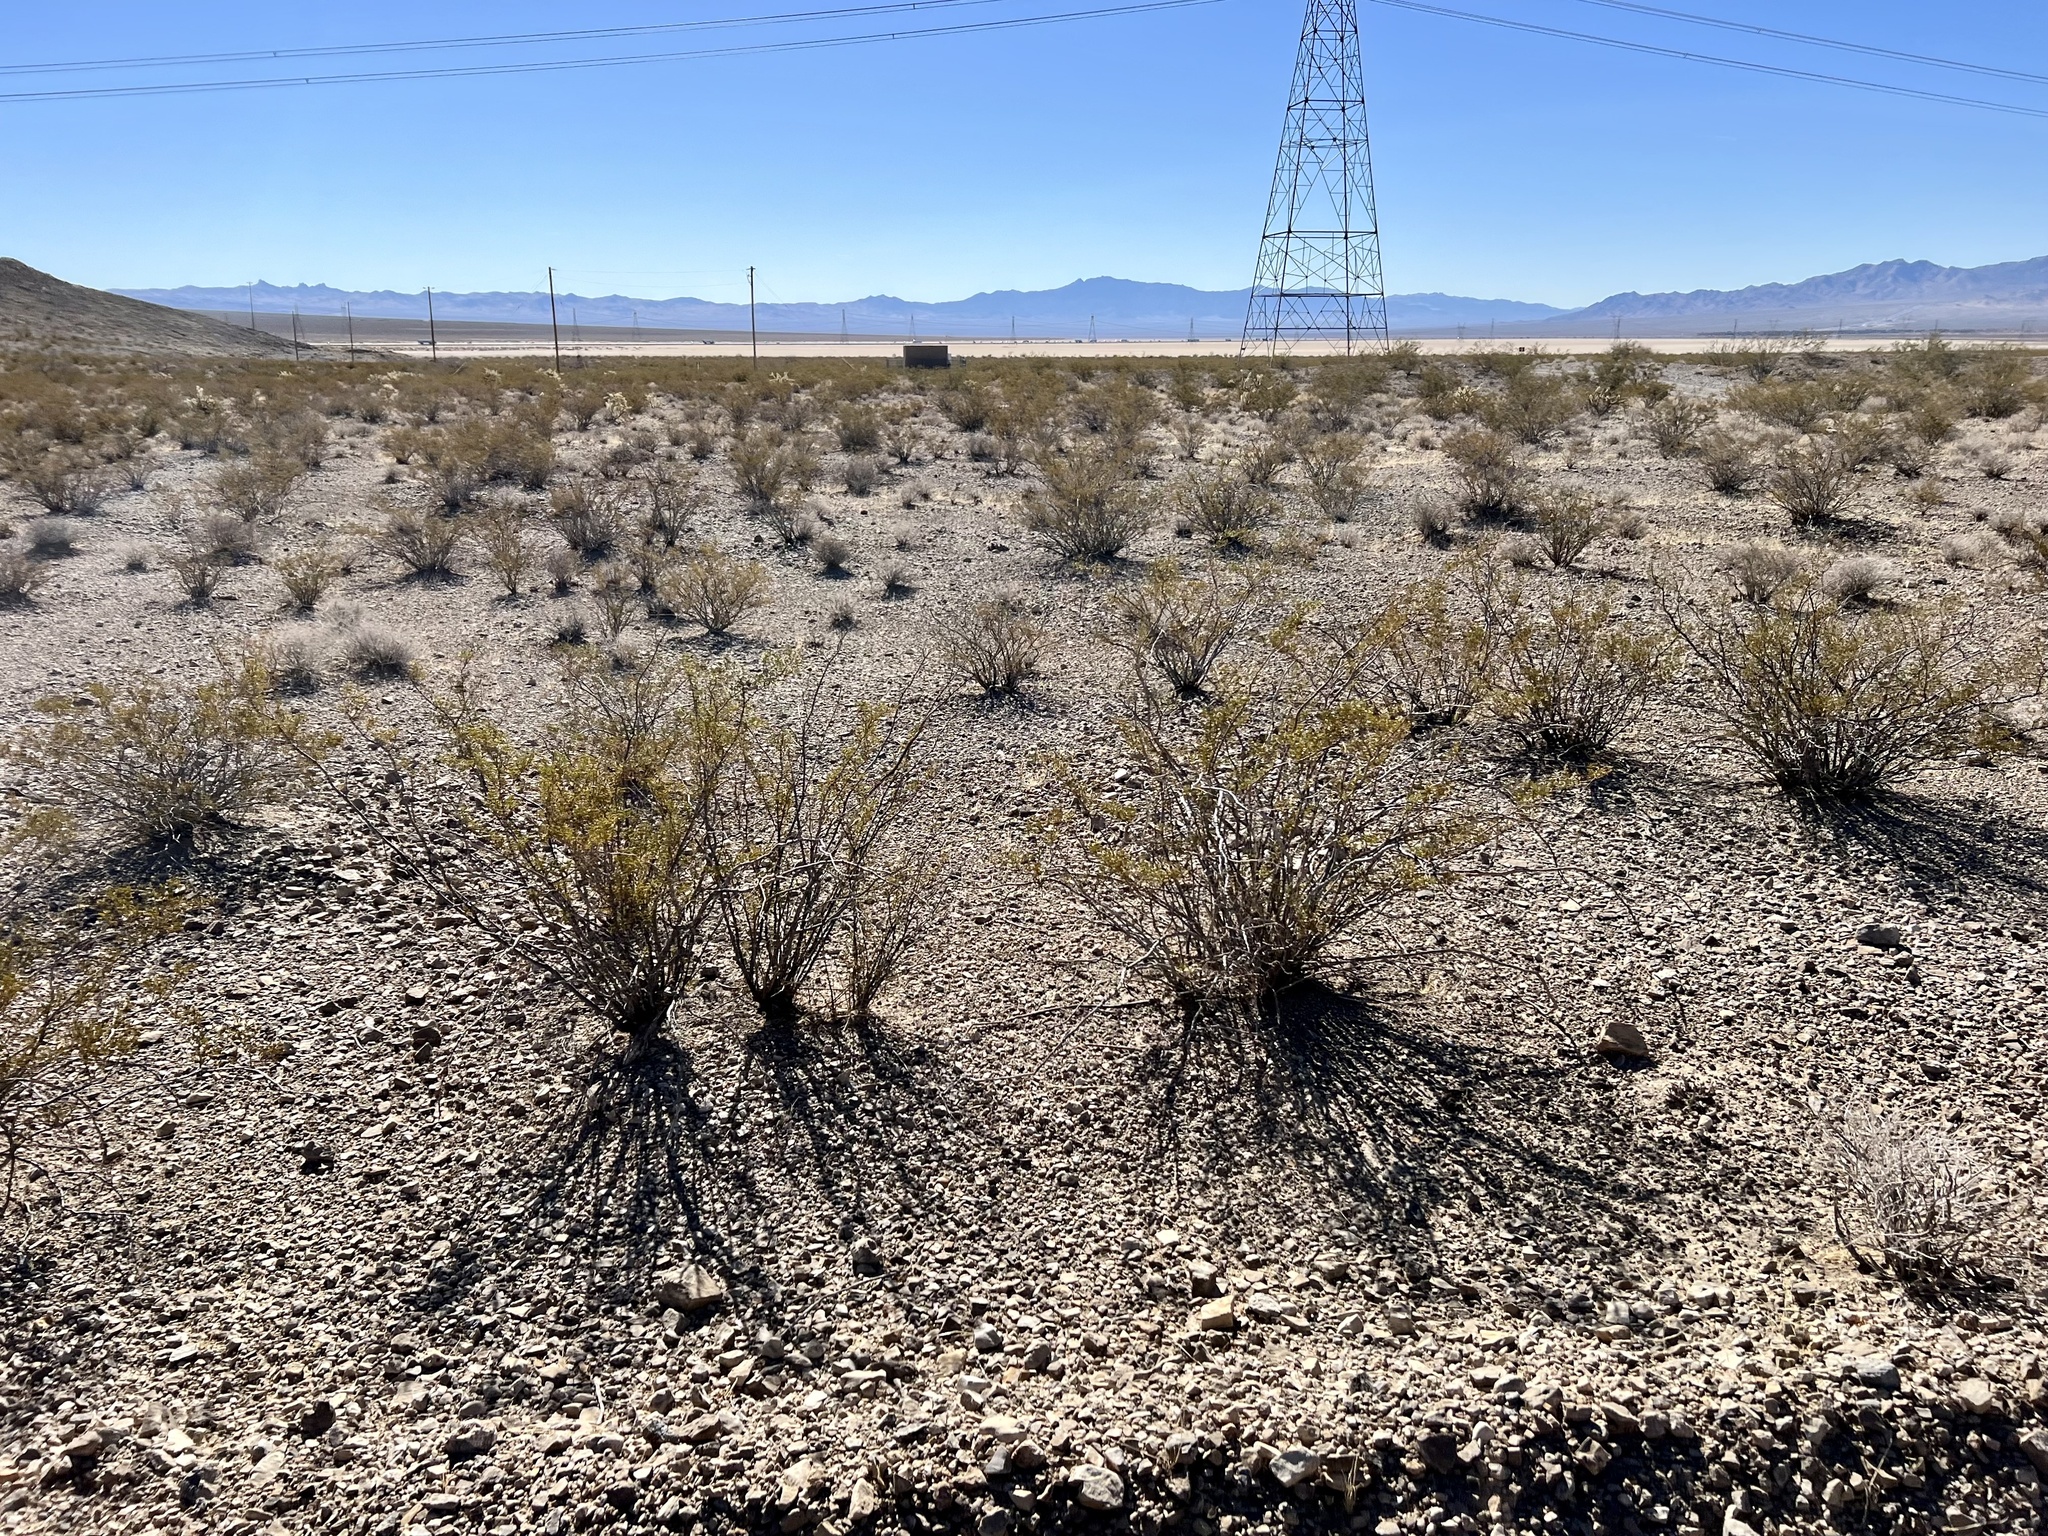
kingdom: Plantae
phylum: Tracheophyta
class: Magnoliopsida
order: Zygophyllales
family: Zygophyllaceae
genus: Larrea
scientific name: Larrea tridentata
